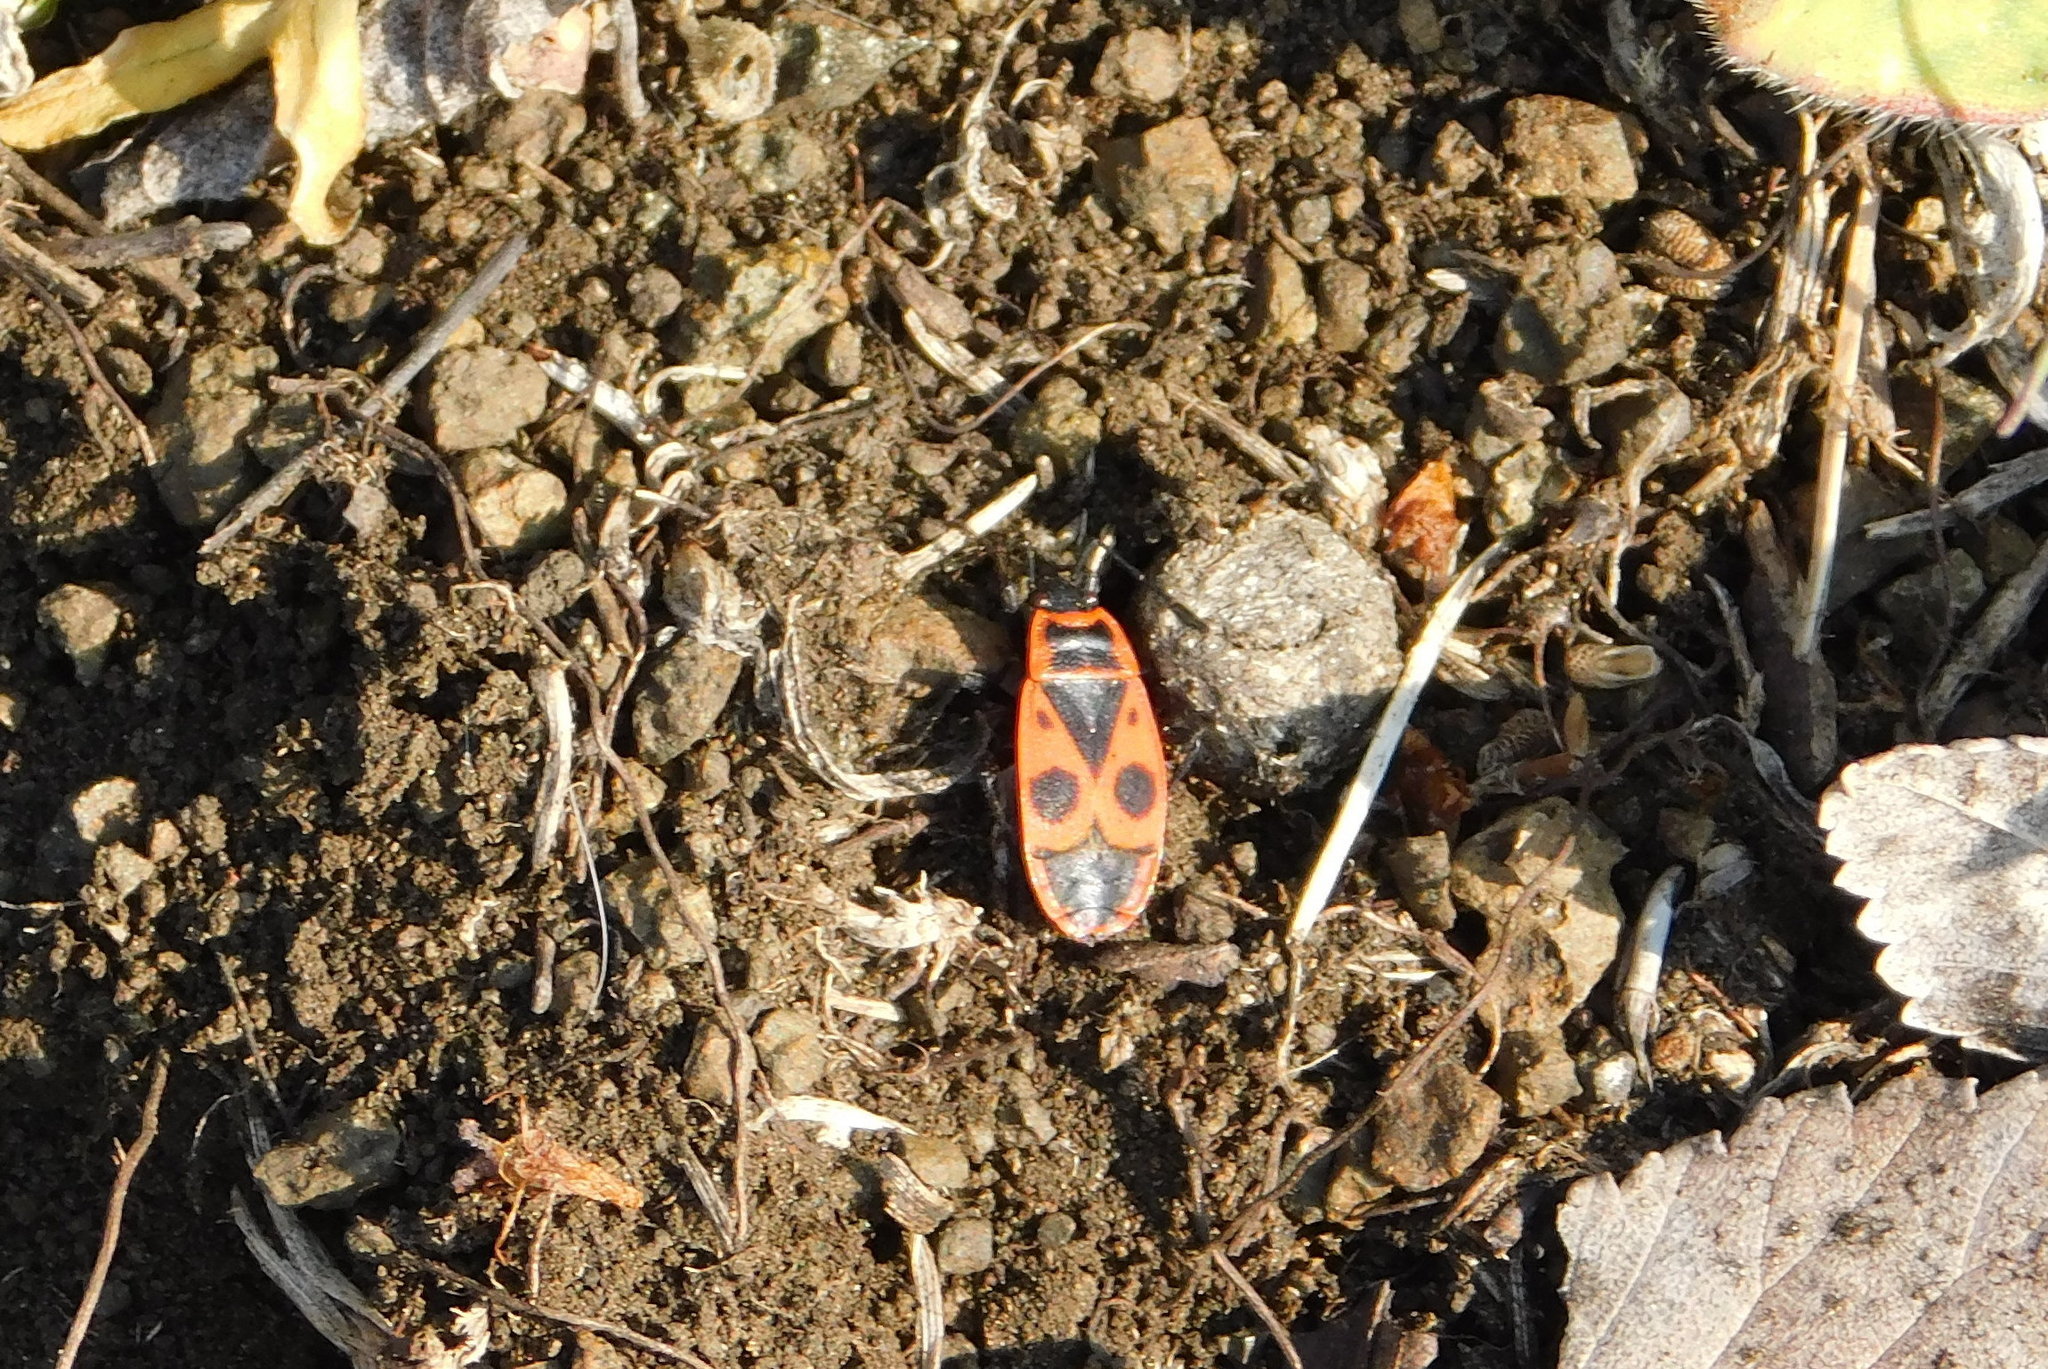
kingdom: Animalia
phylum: Arthropoda
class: Insecta
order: Hemiptera
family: Pyrrhocoridae
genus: Pyrrhocoris
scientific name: Pyrrhocoris apterus
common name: Firebug
